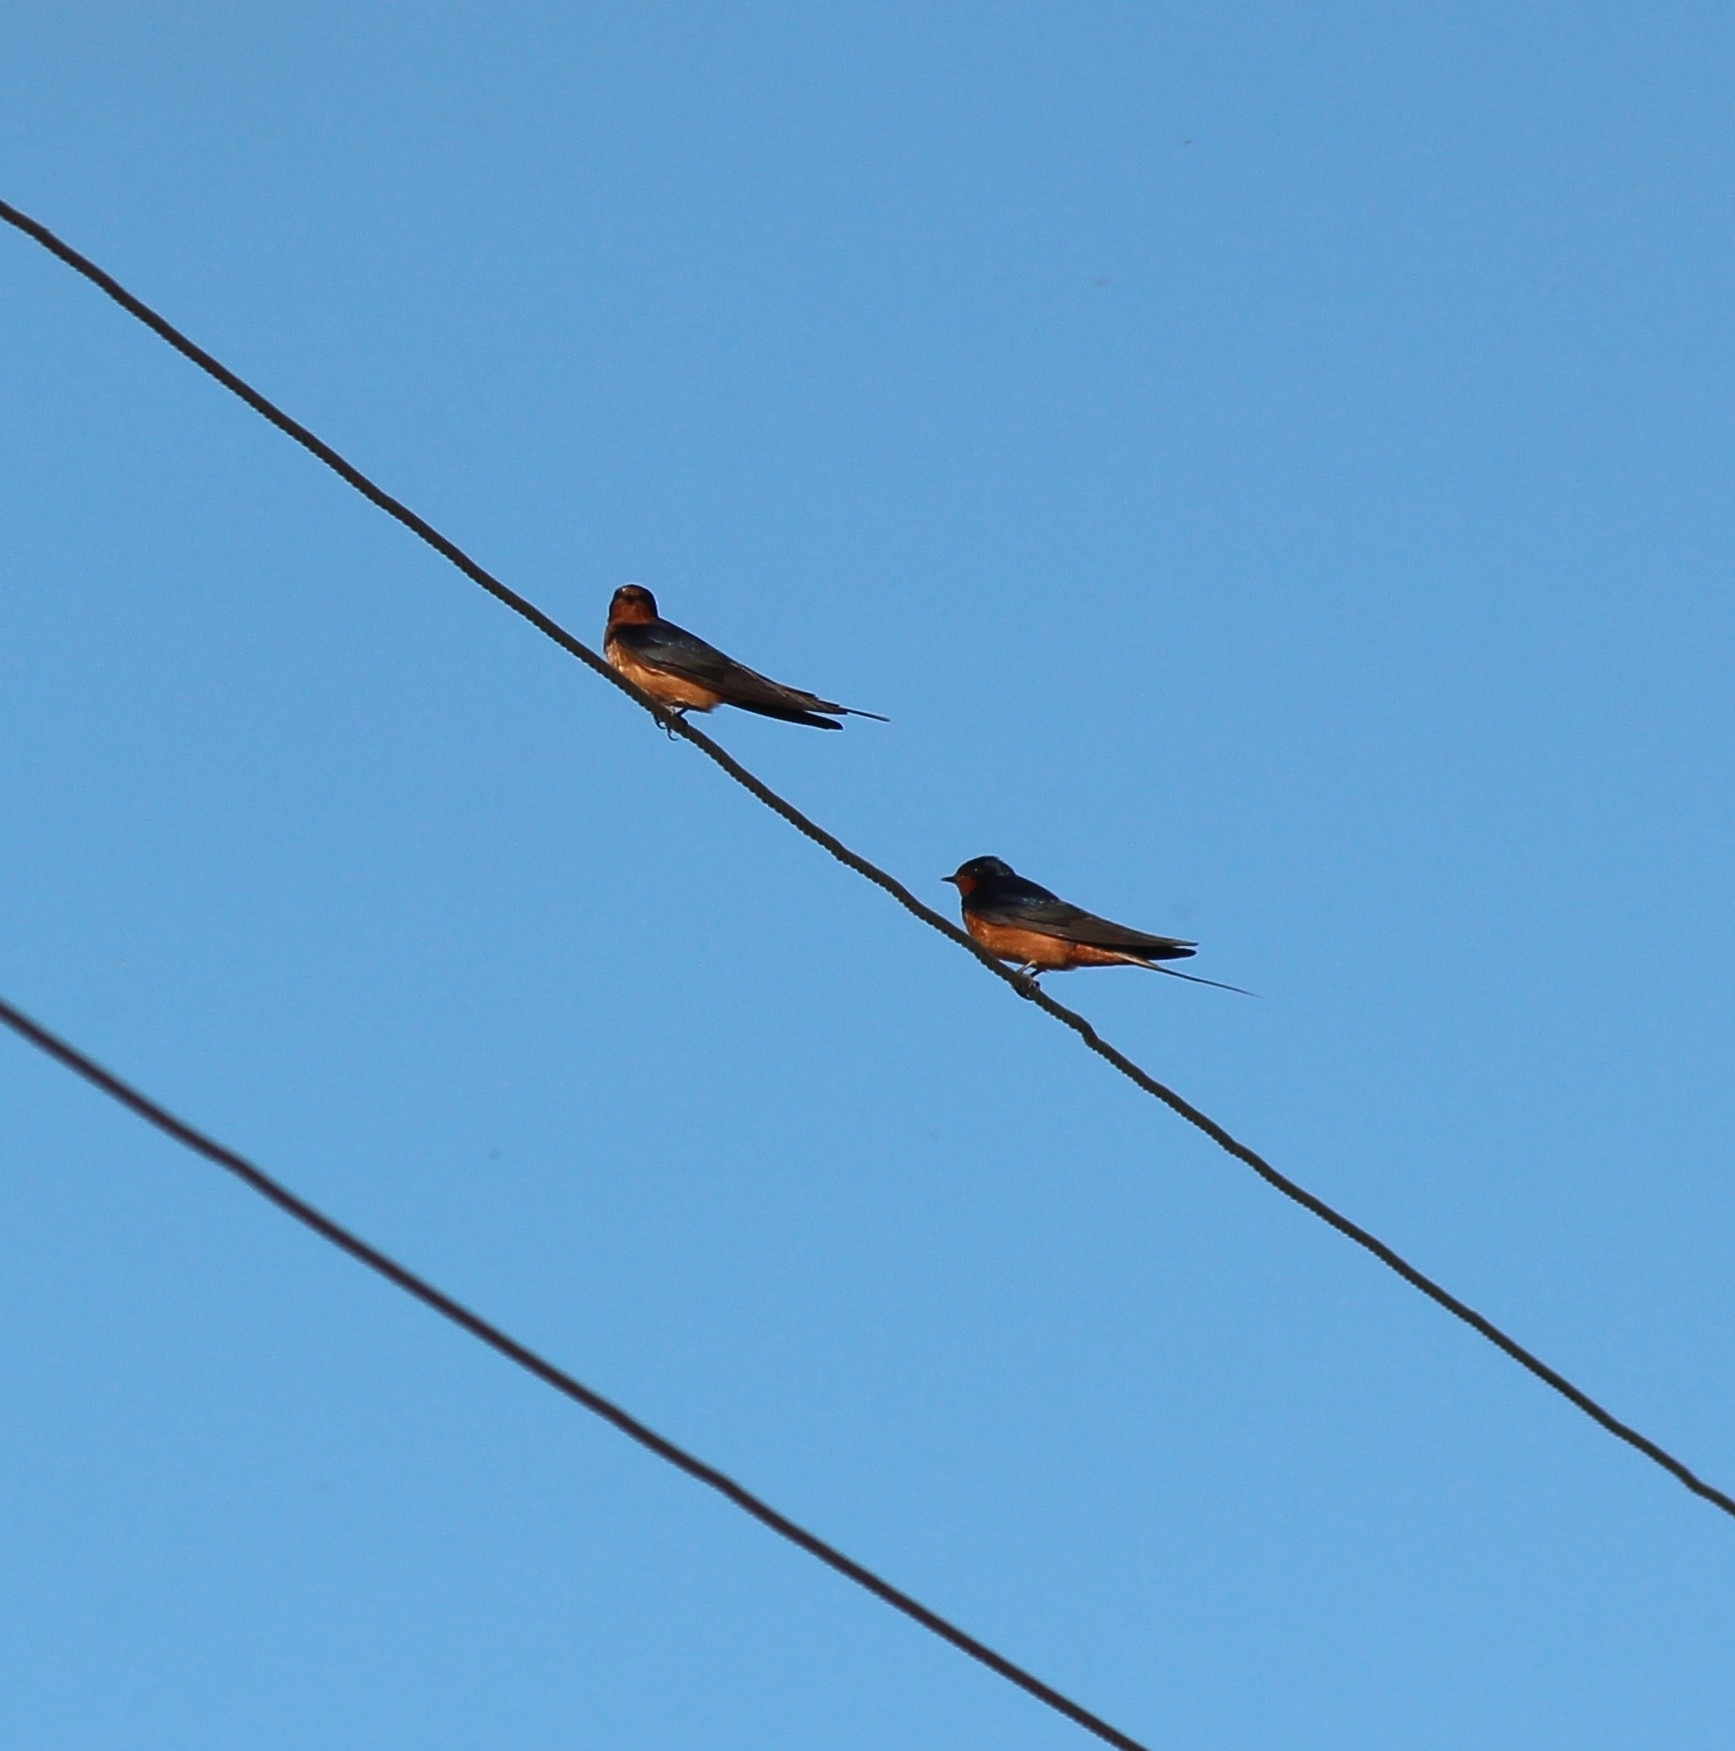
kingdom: Animalia
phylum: Chordata
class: Aves
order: Passeriformes
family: Hirundinidae
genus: Hirundo
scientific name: Hirundo rustica
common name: Barn swallow
